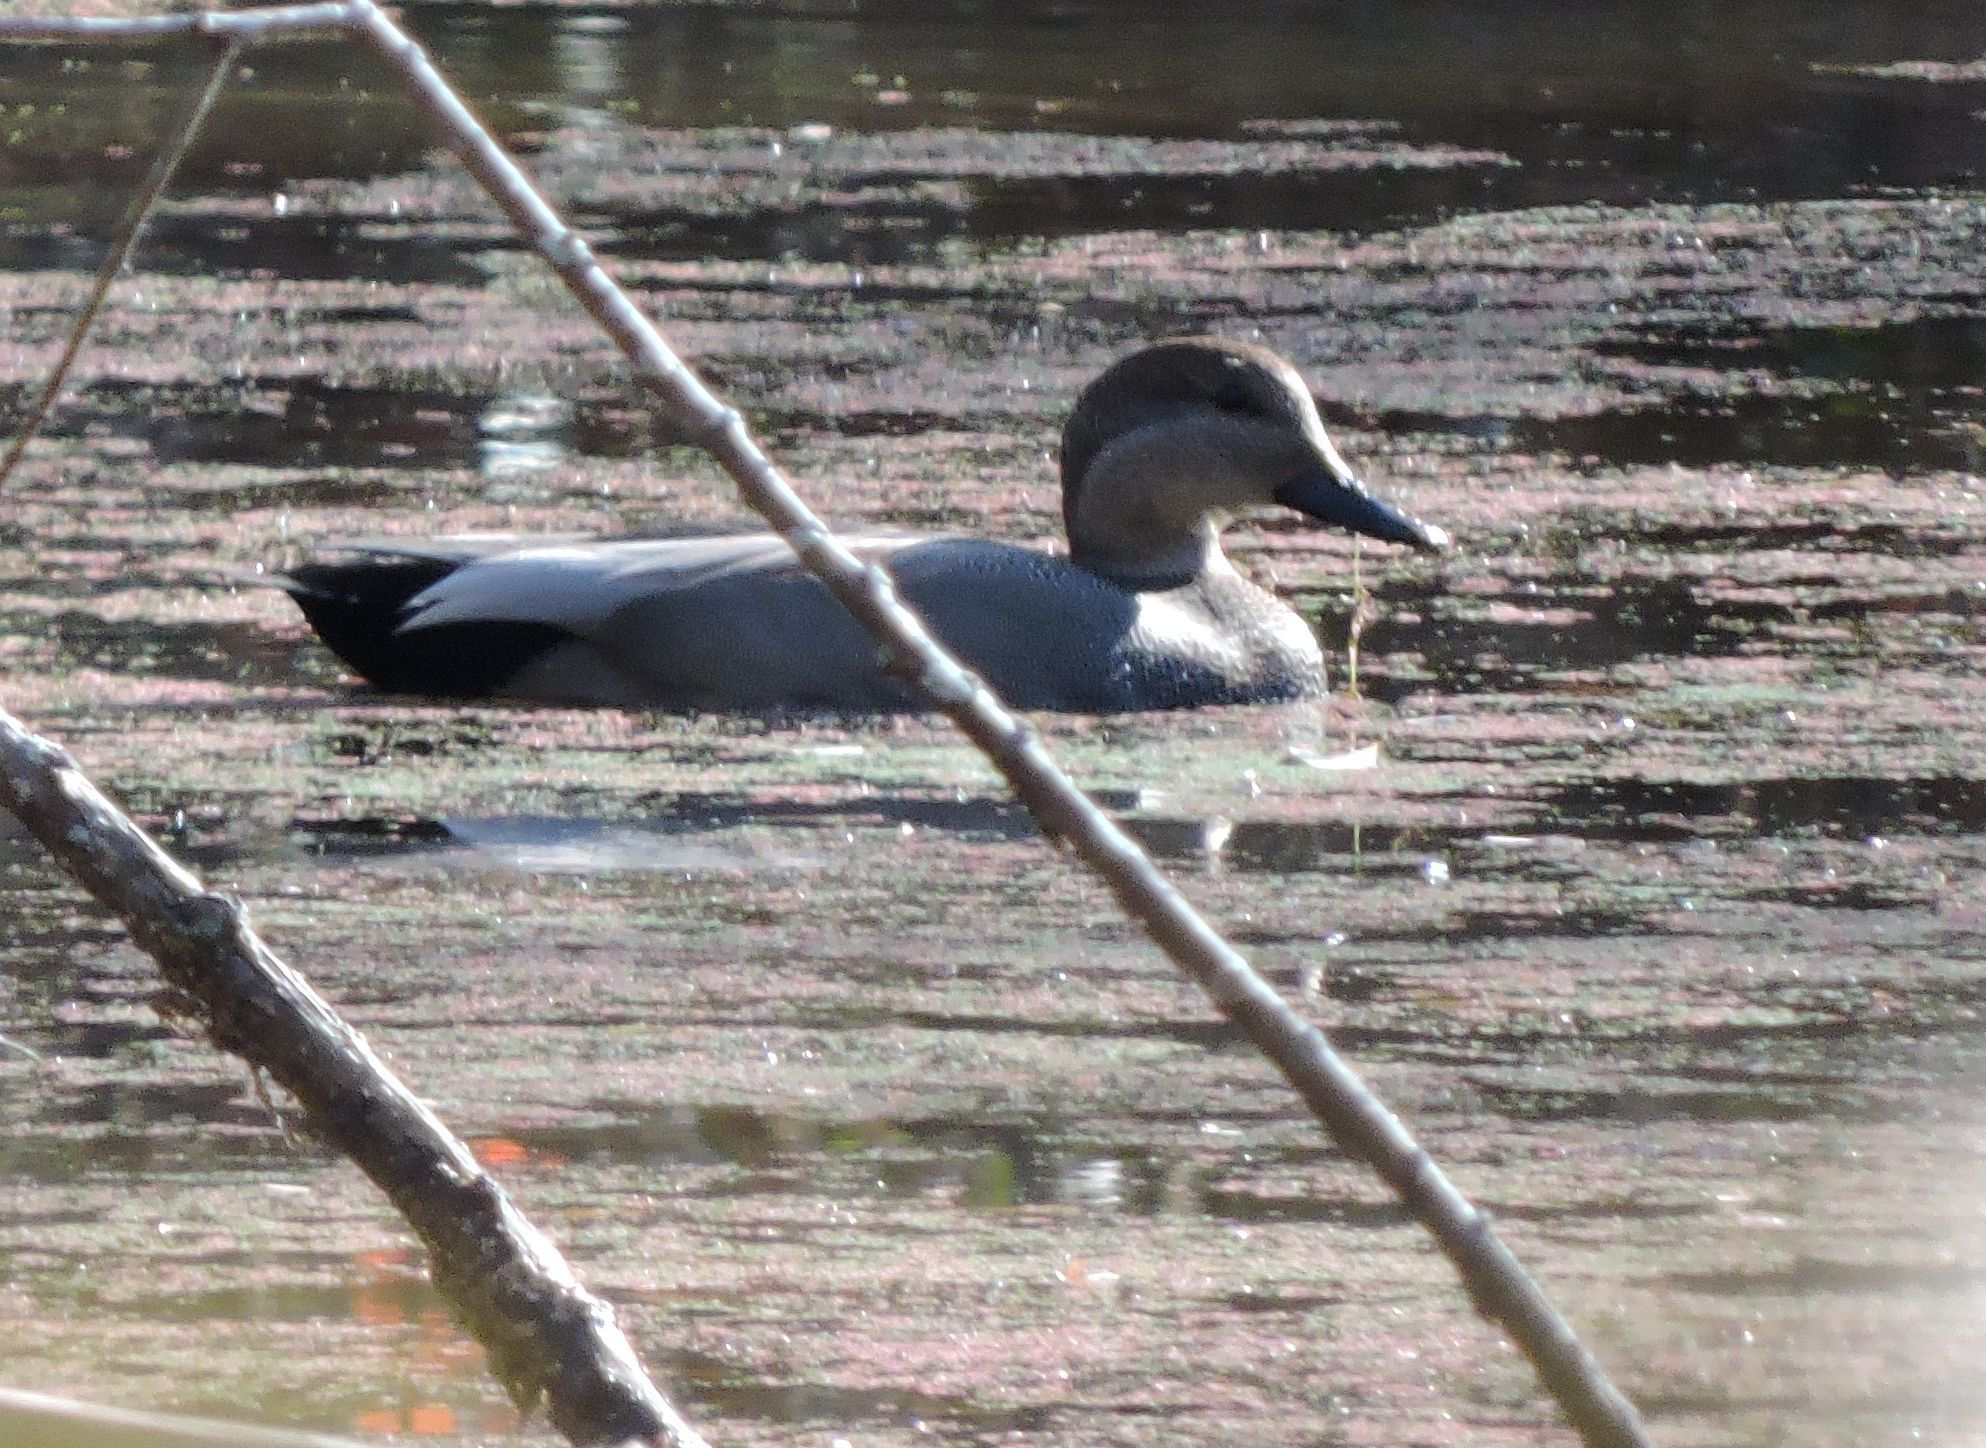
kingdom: Animalia
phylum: Chordata
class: Aves
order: Anseriformes
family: Anatidae
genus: Mareca
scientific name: Mareca strepera
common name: Gadwall
